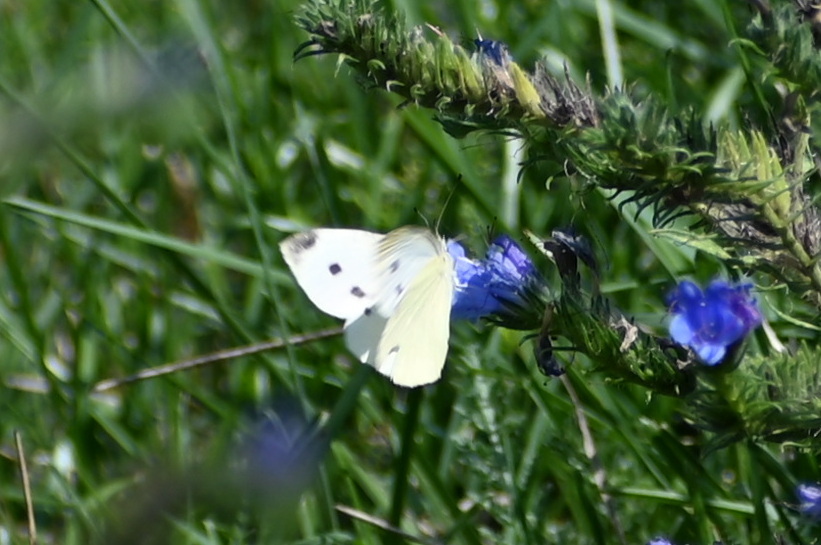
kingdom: Animalia
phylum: Arthropoda
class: Insecta
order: Lepidoptera
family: Pieridae
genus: Pieris
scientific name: Pieris rapae
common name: Small white
